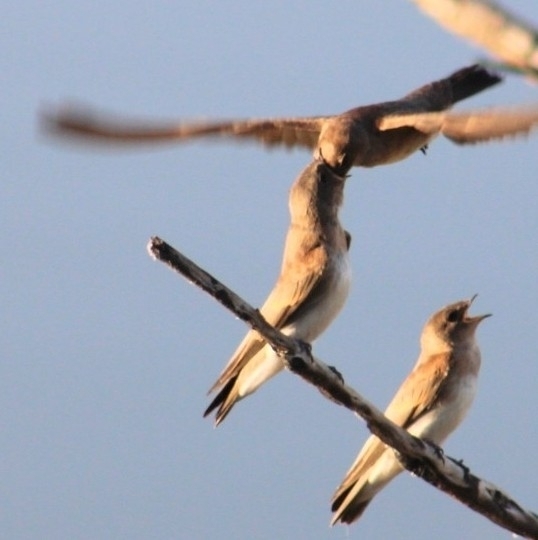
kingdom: Animalia
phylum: Chordata
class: Aves
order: Passeriformes
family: Hirundinidae
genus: Stelgidopteryx
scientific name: Stelgidopteryx serripennis
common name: Northern rough-winged swallow
